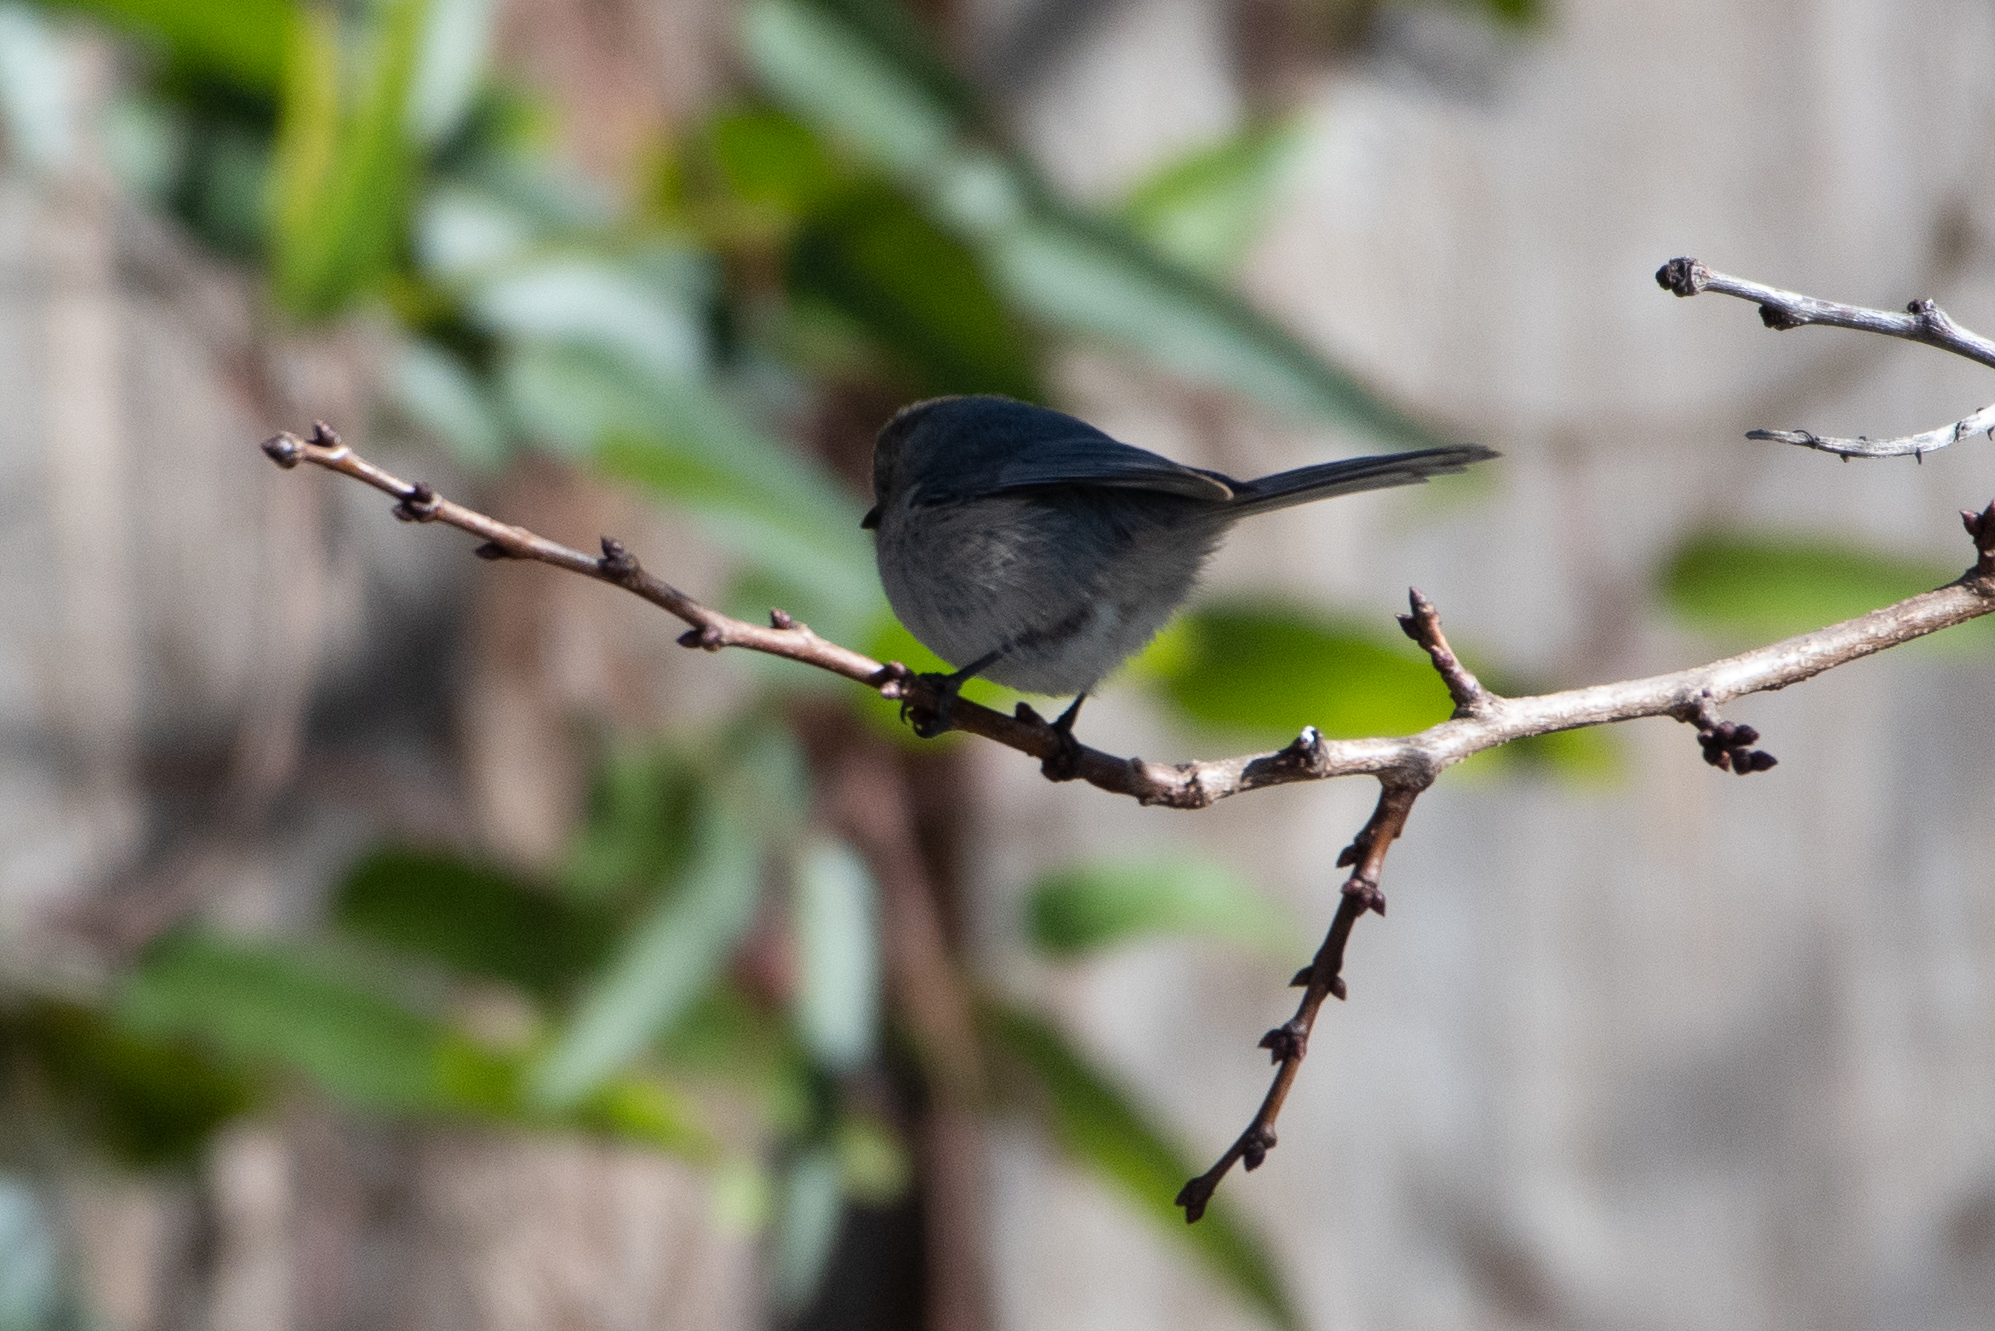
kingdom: Animalia
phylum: Chordata
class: Aves
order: Passeriformes
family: Aegithalidae
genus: Psaltriparus
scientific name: Psaltriparus minimus
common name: American bushtit
